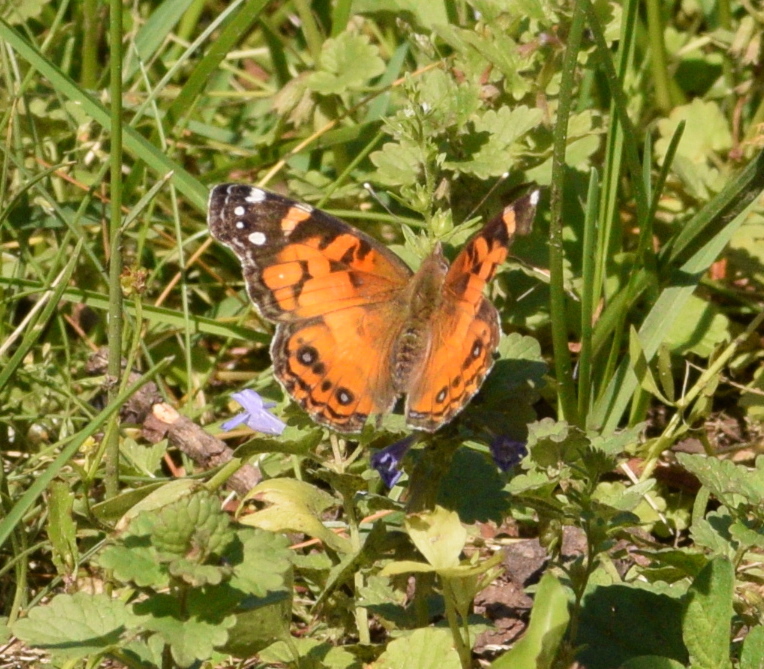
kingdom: Animalia
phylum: Arthropoda
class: Insecta
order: Lepidoptera
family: Nymphalidae
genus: Vanessa
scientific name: Vanessa virginiensis
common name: American lady
